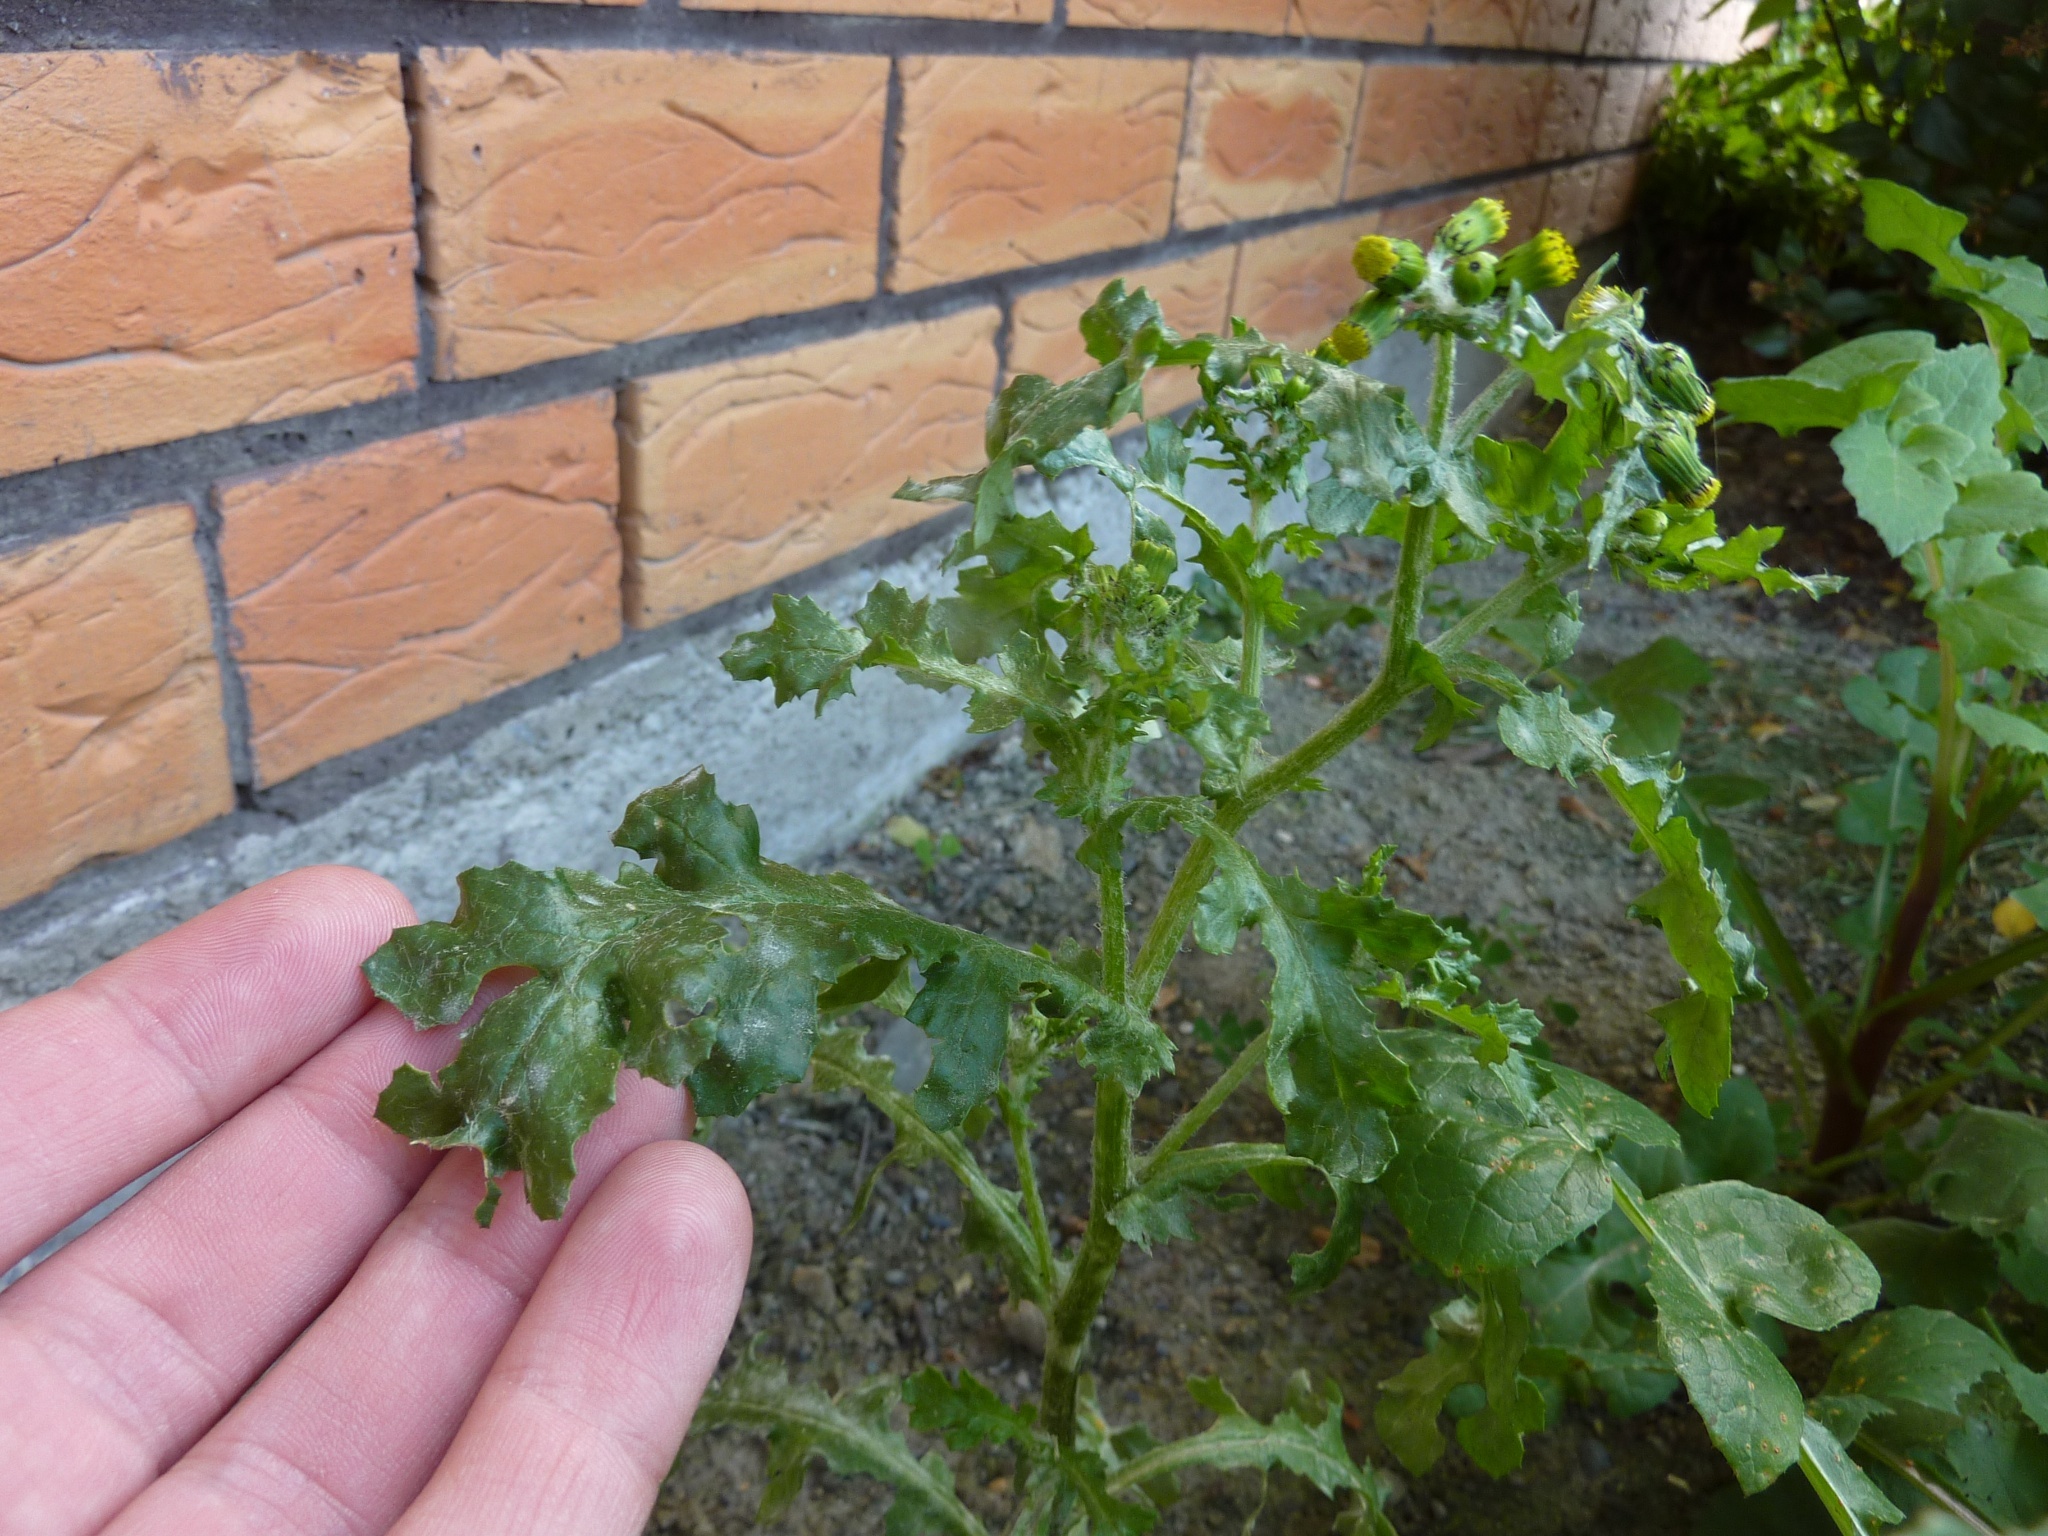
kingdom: Plantae
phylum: Tracheophyta
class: Magnoliopsida
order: Asterales
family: Asteraceae
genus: Senecio
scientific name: Senecio vulgaris
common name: Old-man-in-the-spring
